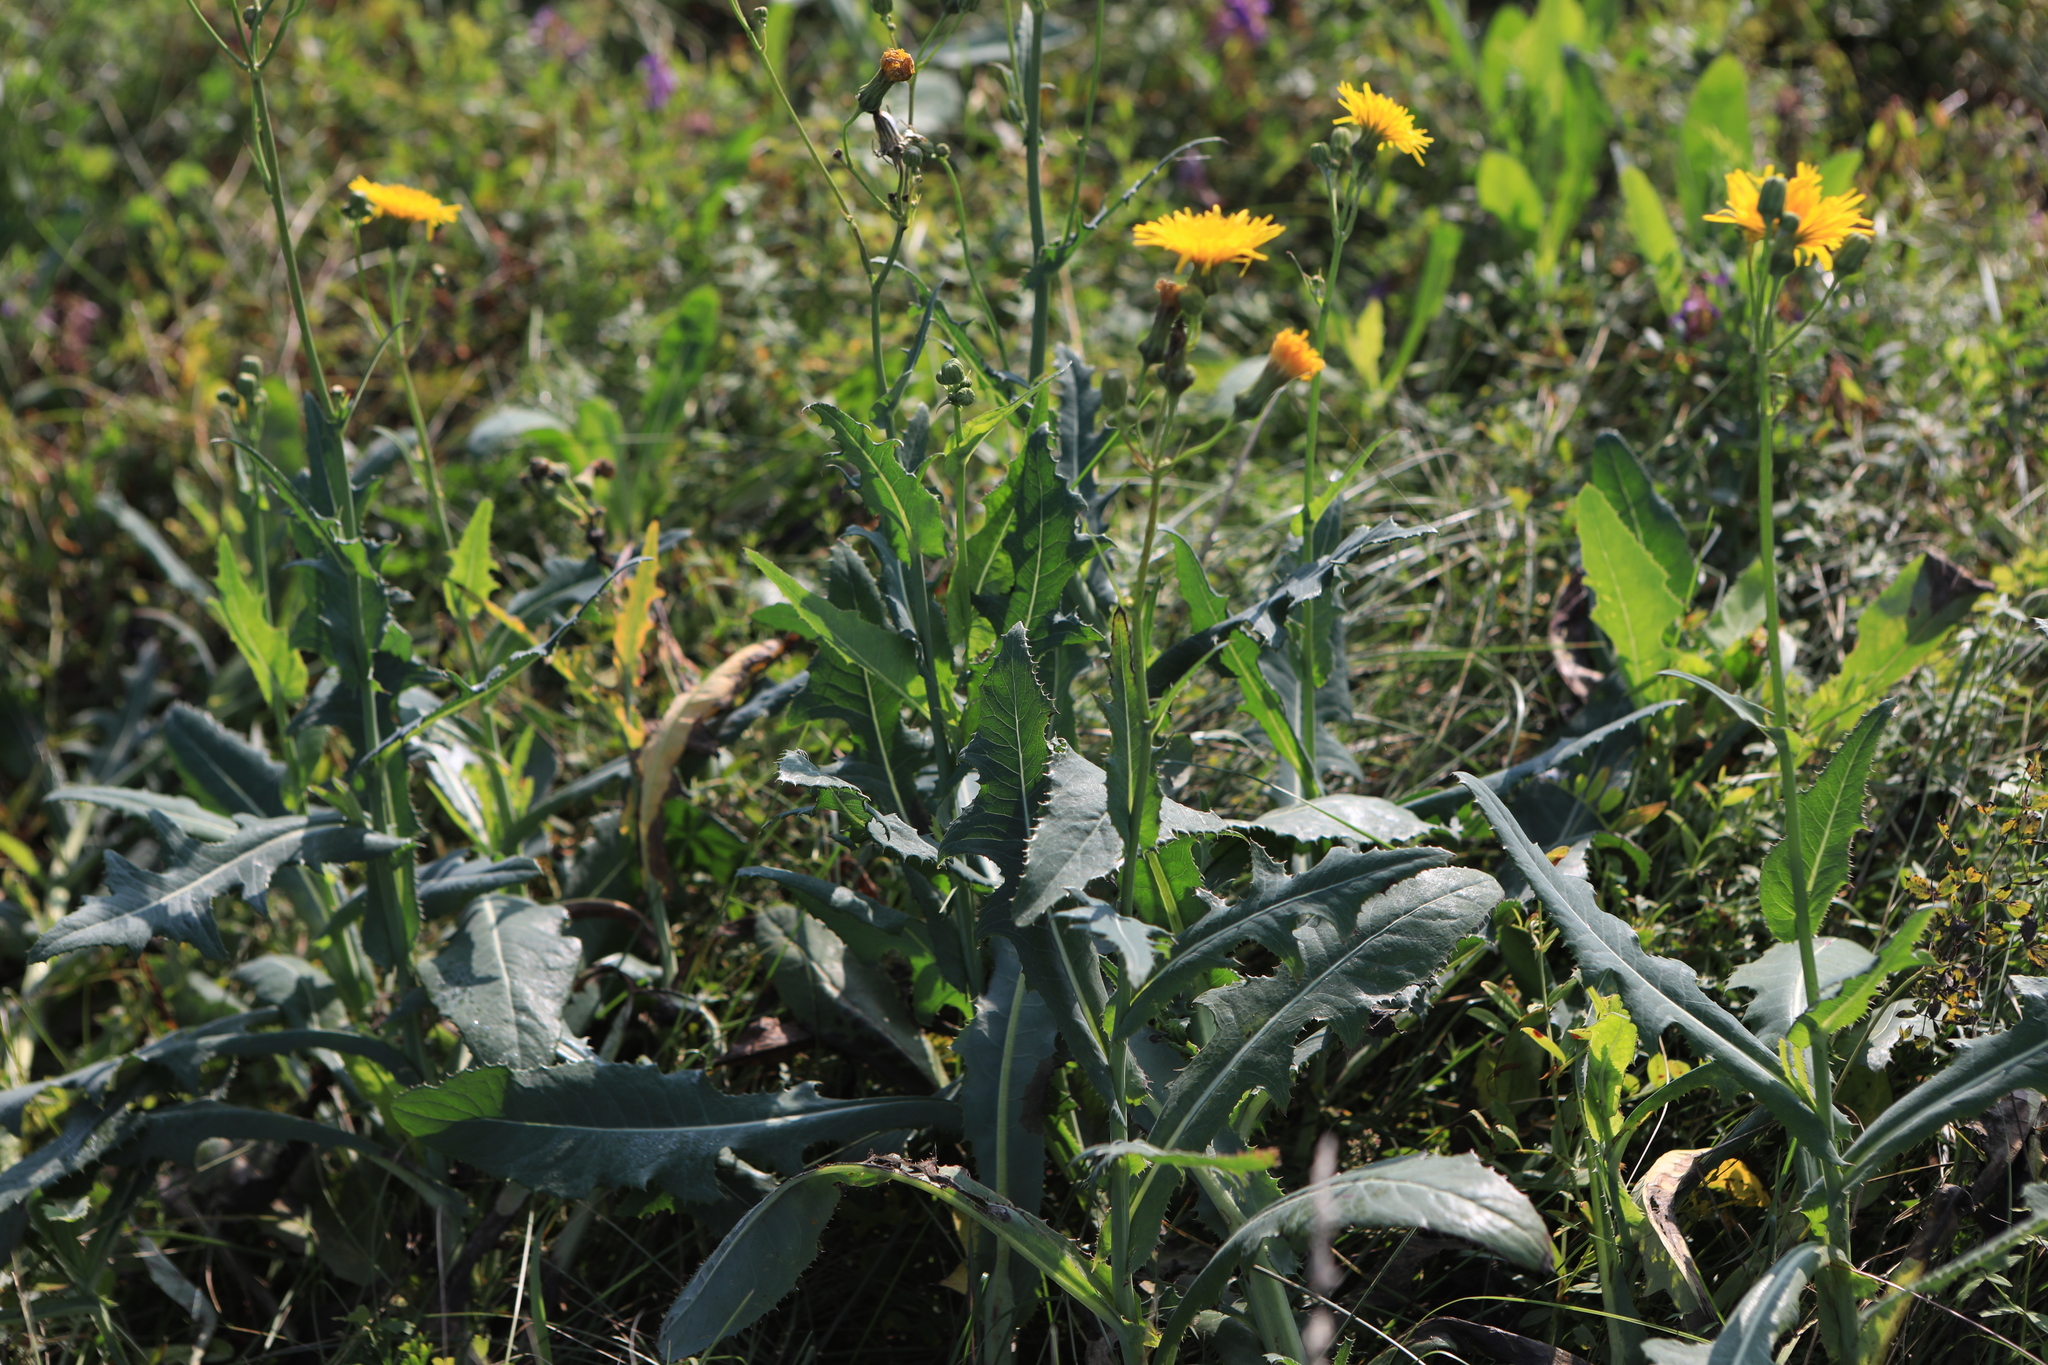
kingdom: Plantae
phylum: Tracheophyta
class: Magnoliopsida
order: Asterales
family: Asteraceae
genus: Sonchus
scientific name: Sonchus arvensis
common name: Perennial sow-thistle
